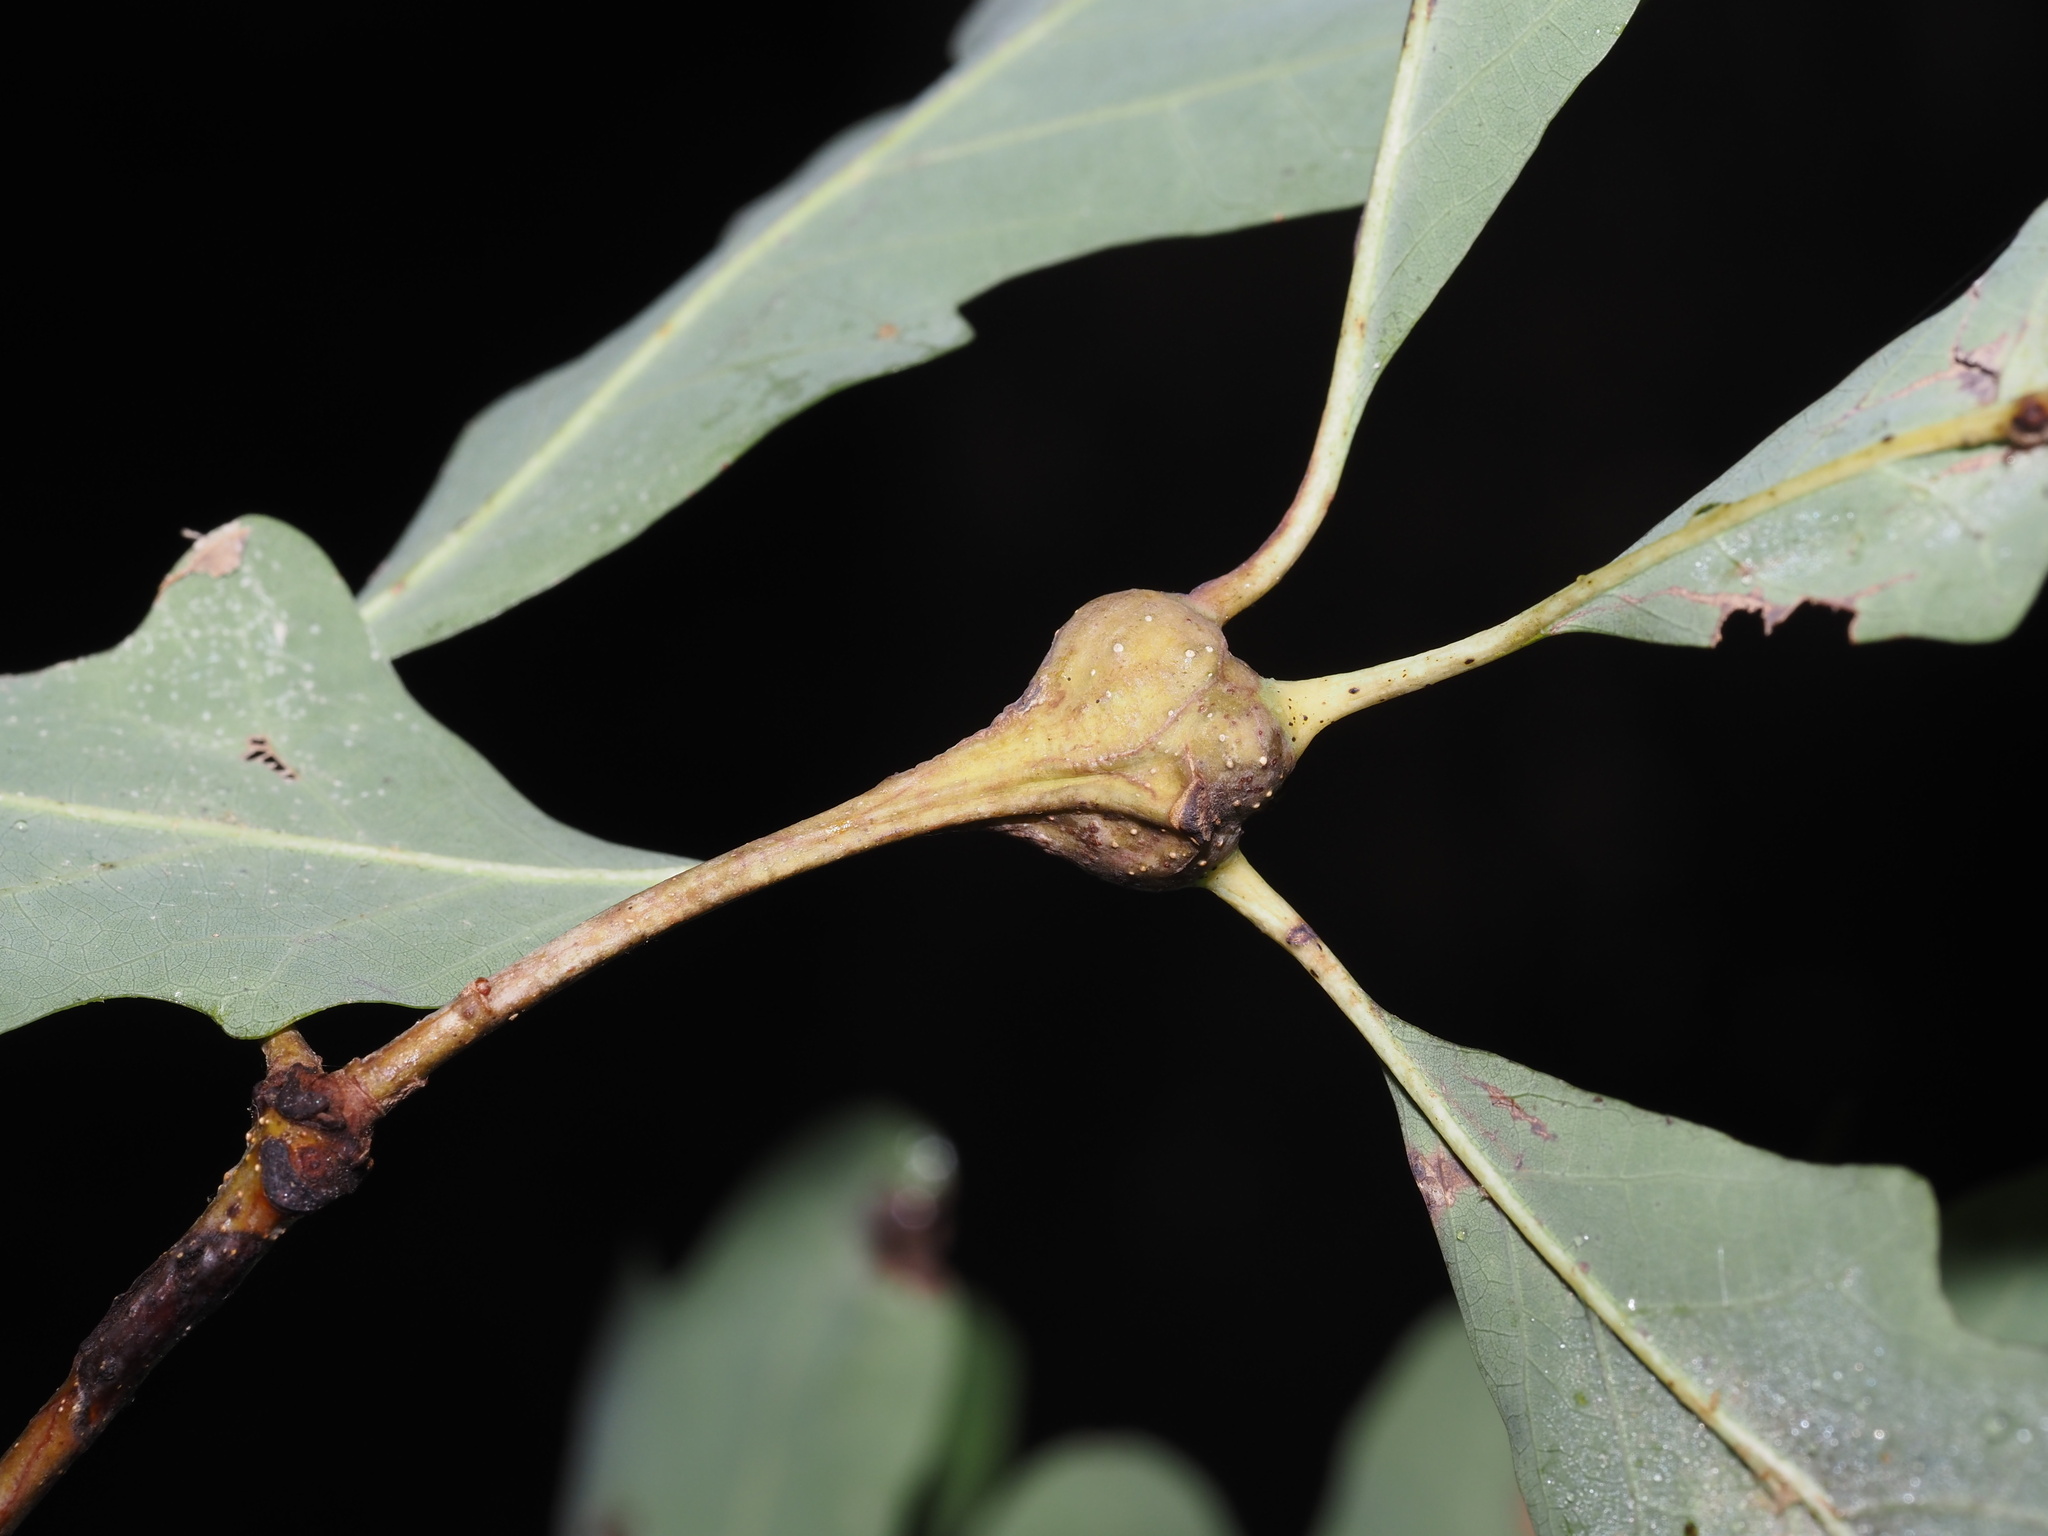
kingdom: Animalia
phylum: Arthropoda
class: Insecta
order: Hymenoptera
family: Cynipidae
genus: Callirhytis
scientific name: Callirhytis clavula
